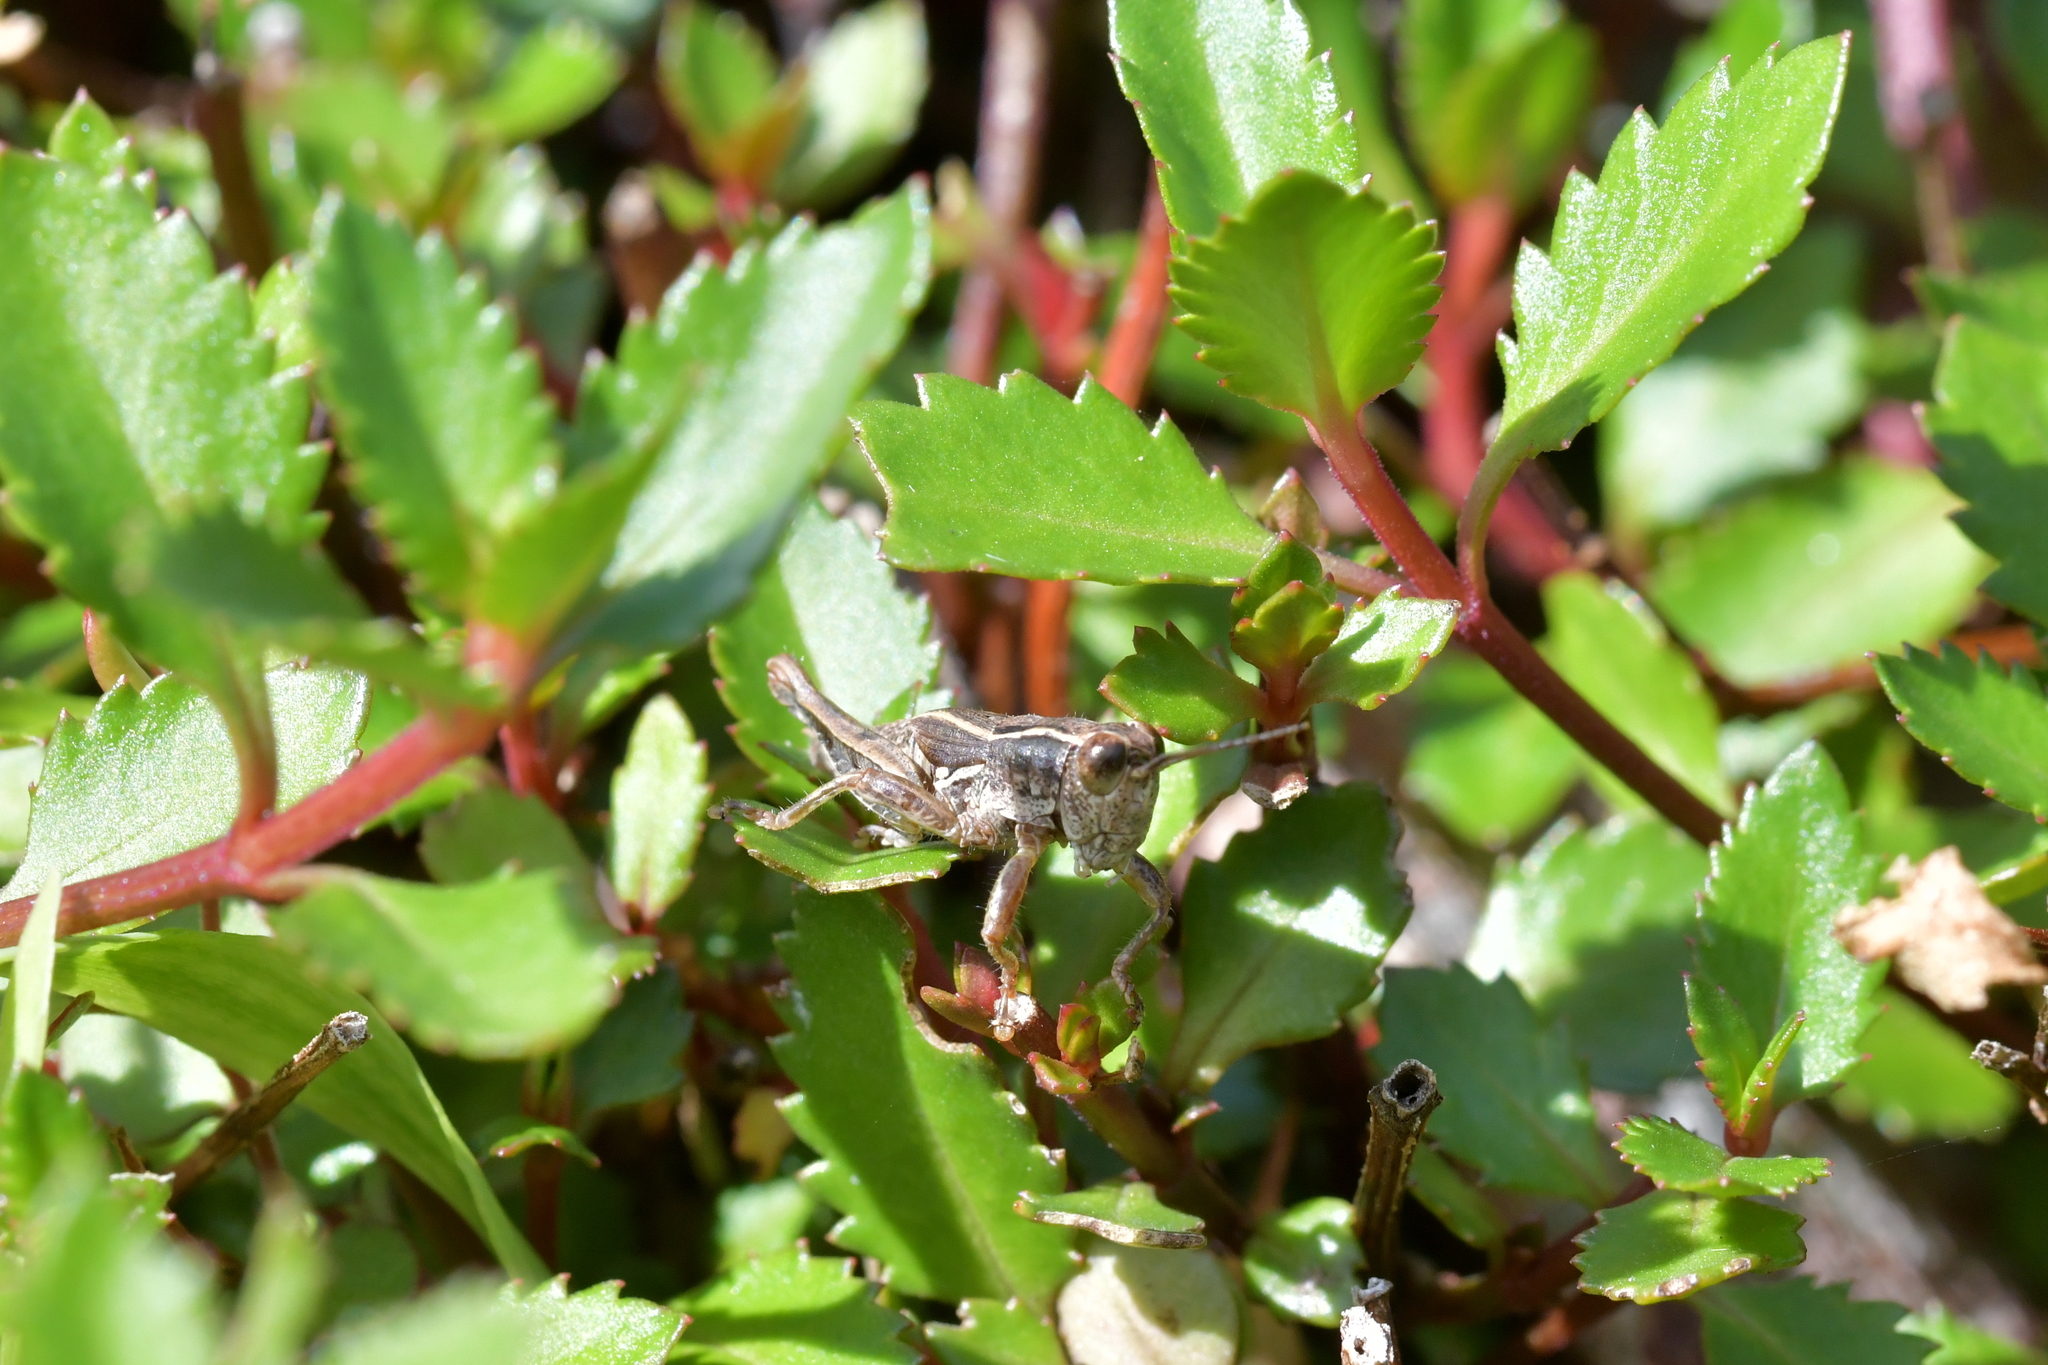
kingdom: Animalia
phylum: Arthropoda
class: Insecta
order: Orthoptera
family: Acrididae
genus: Phaulacridium
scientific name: Phaulacridium marginale
